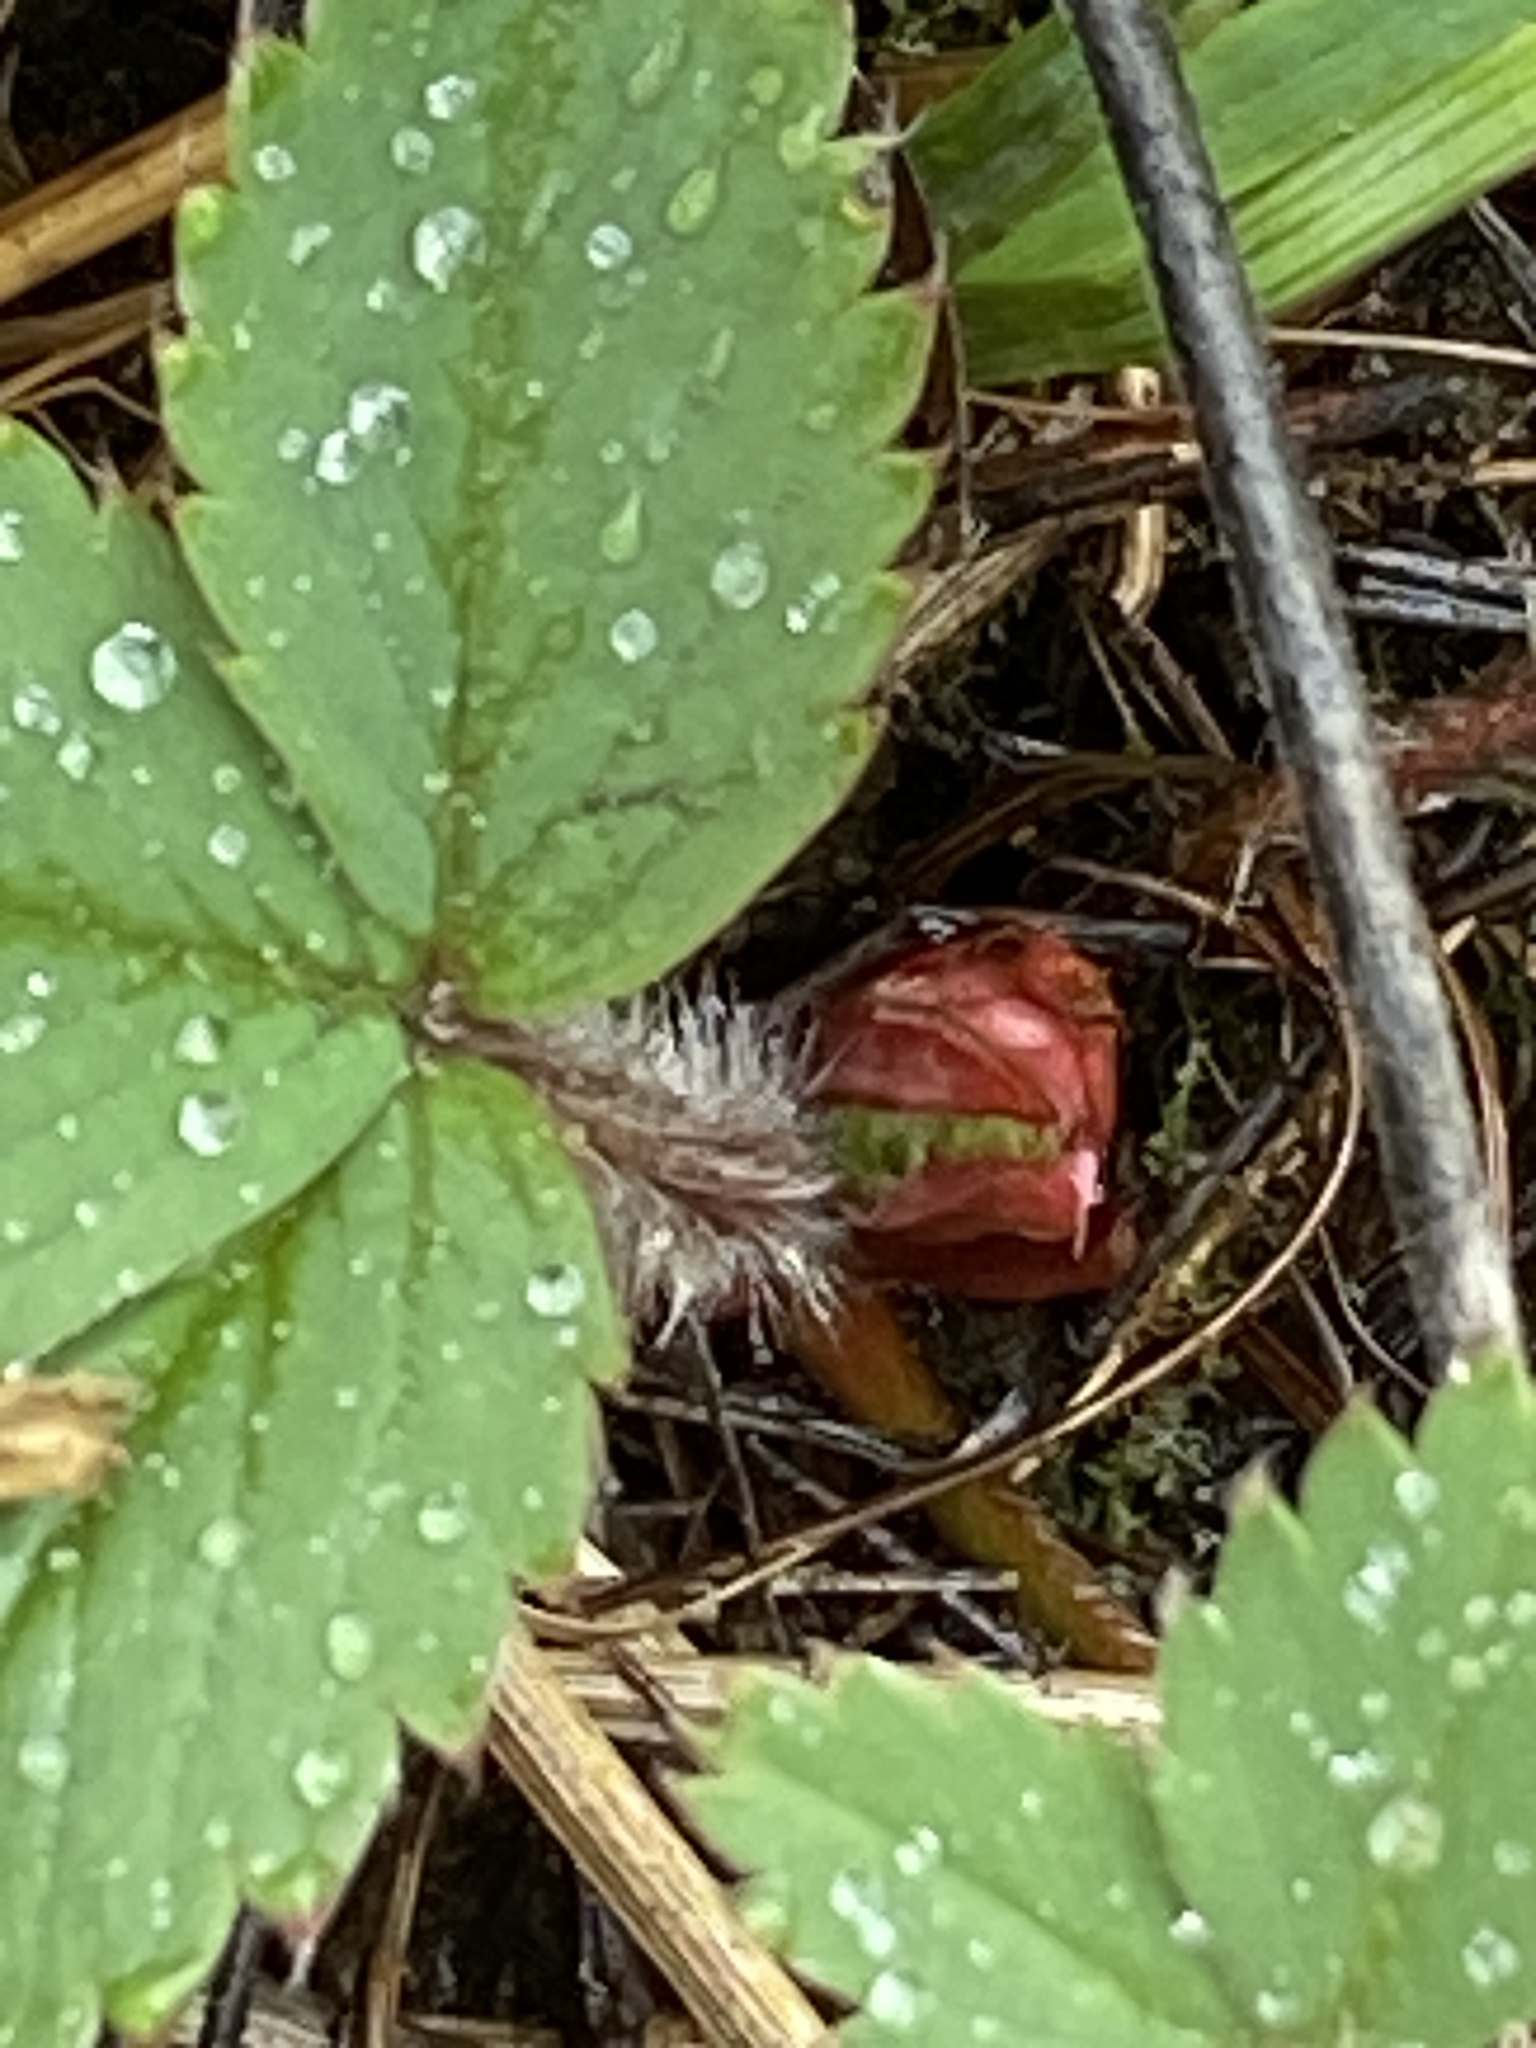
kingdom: Plantae
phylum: Tracheophyta
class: Magnoliopsida
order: Rosales
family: Rosaceae
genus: Fragaria
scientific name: Fragaria virginiana
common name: Thickleaved wild strawberry
